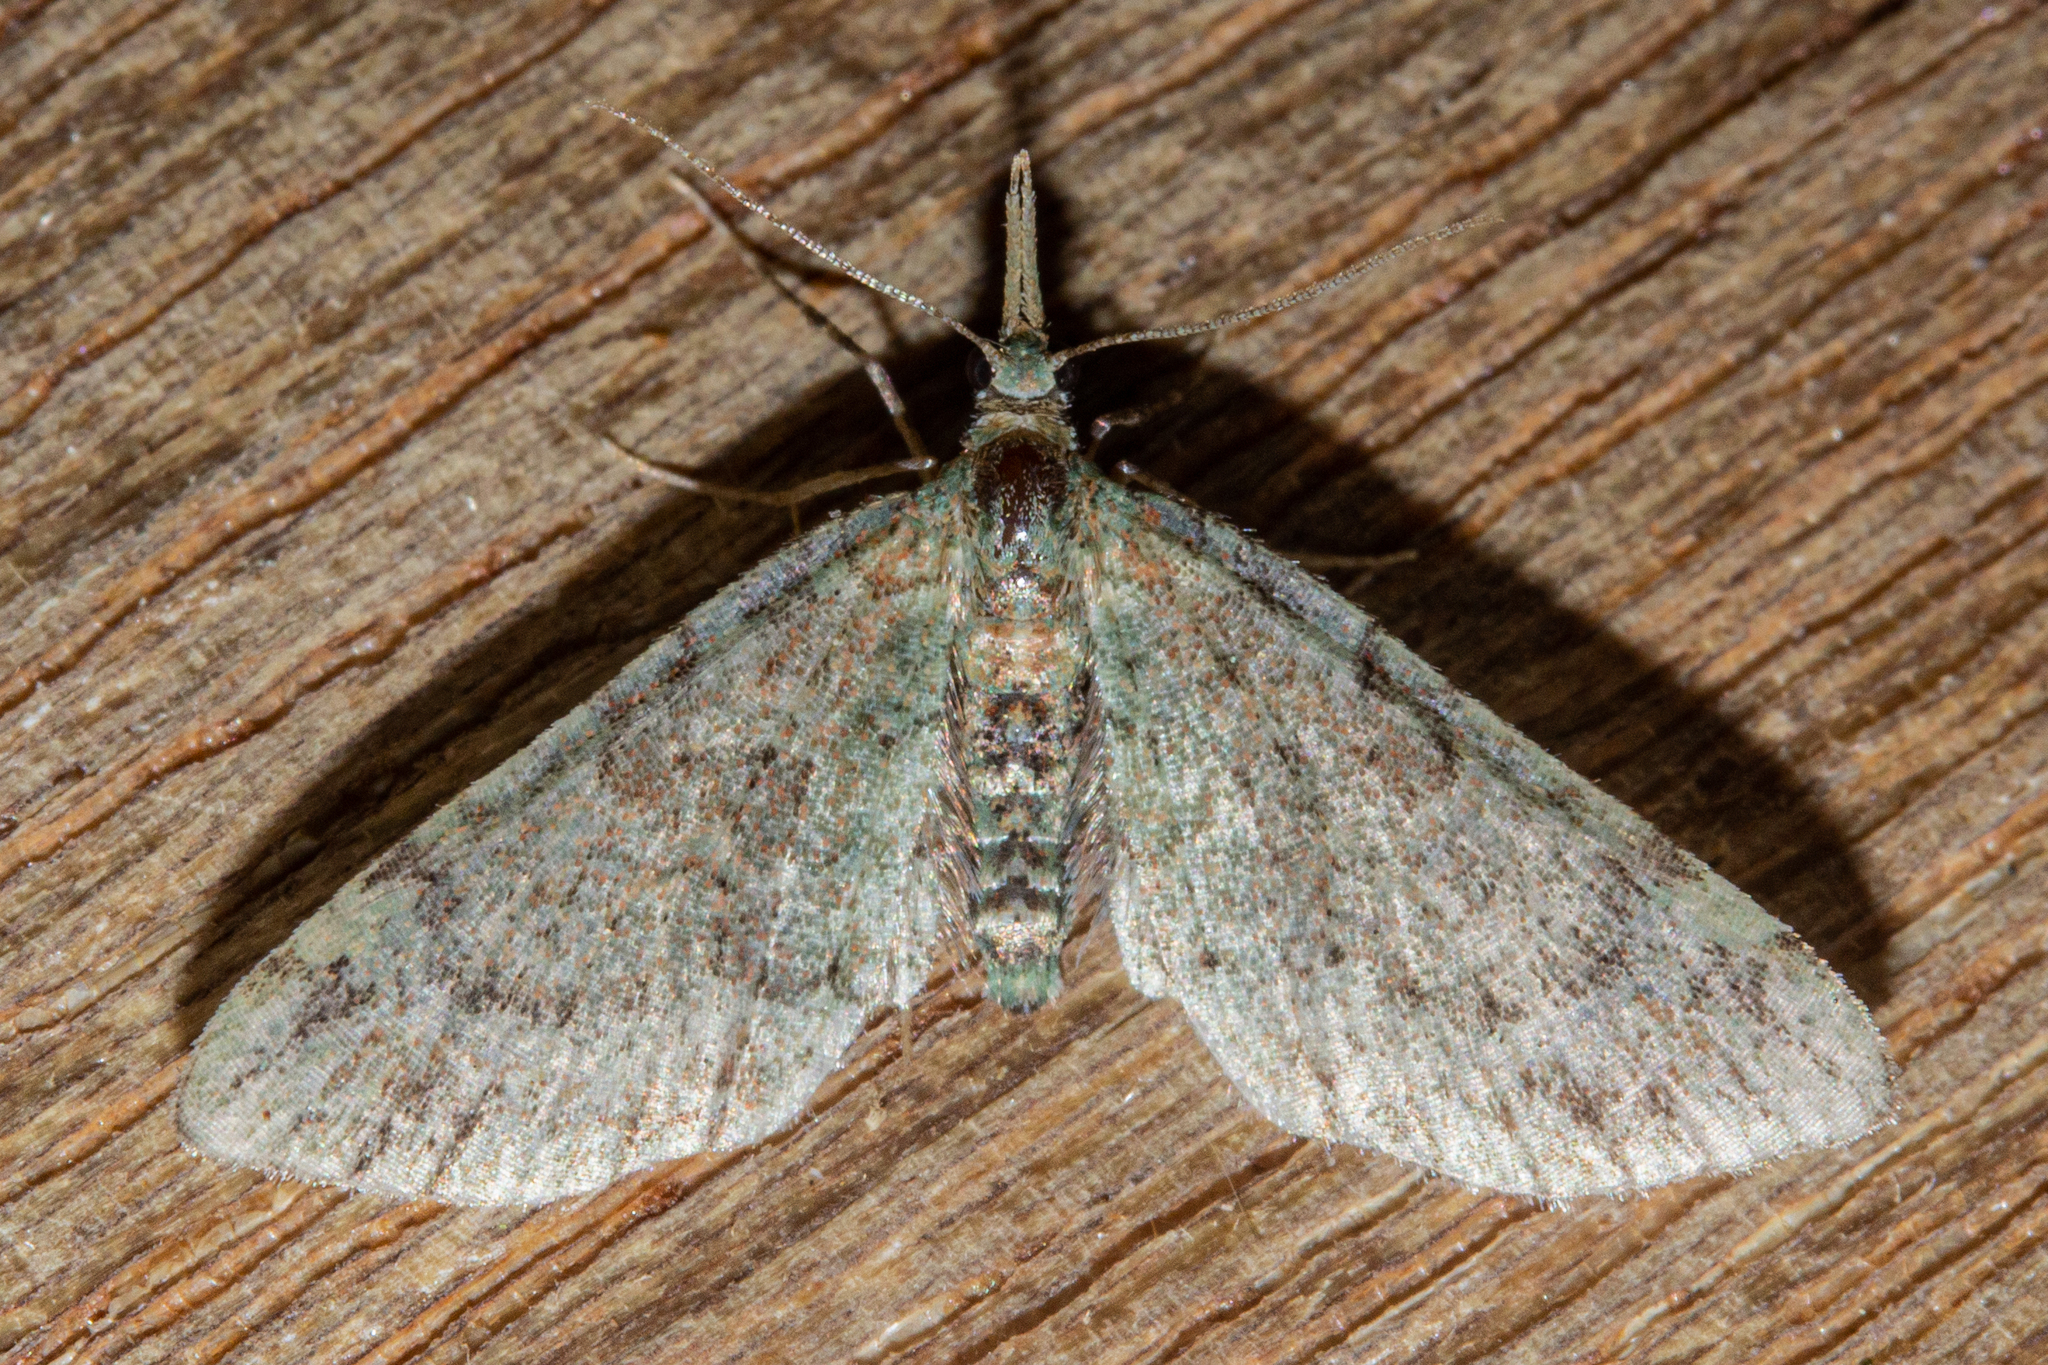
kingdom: Animalia
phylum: Arthropoda
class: Insecta
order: Lepidoptera
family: Geometridae
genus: Pasiphila
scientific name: Pasiphila plinthina
